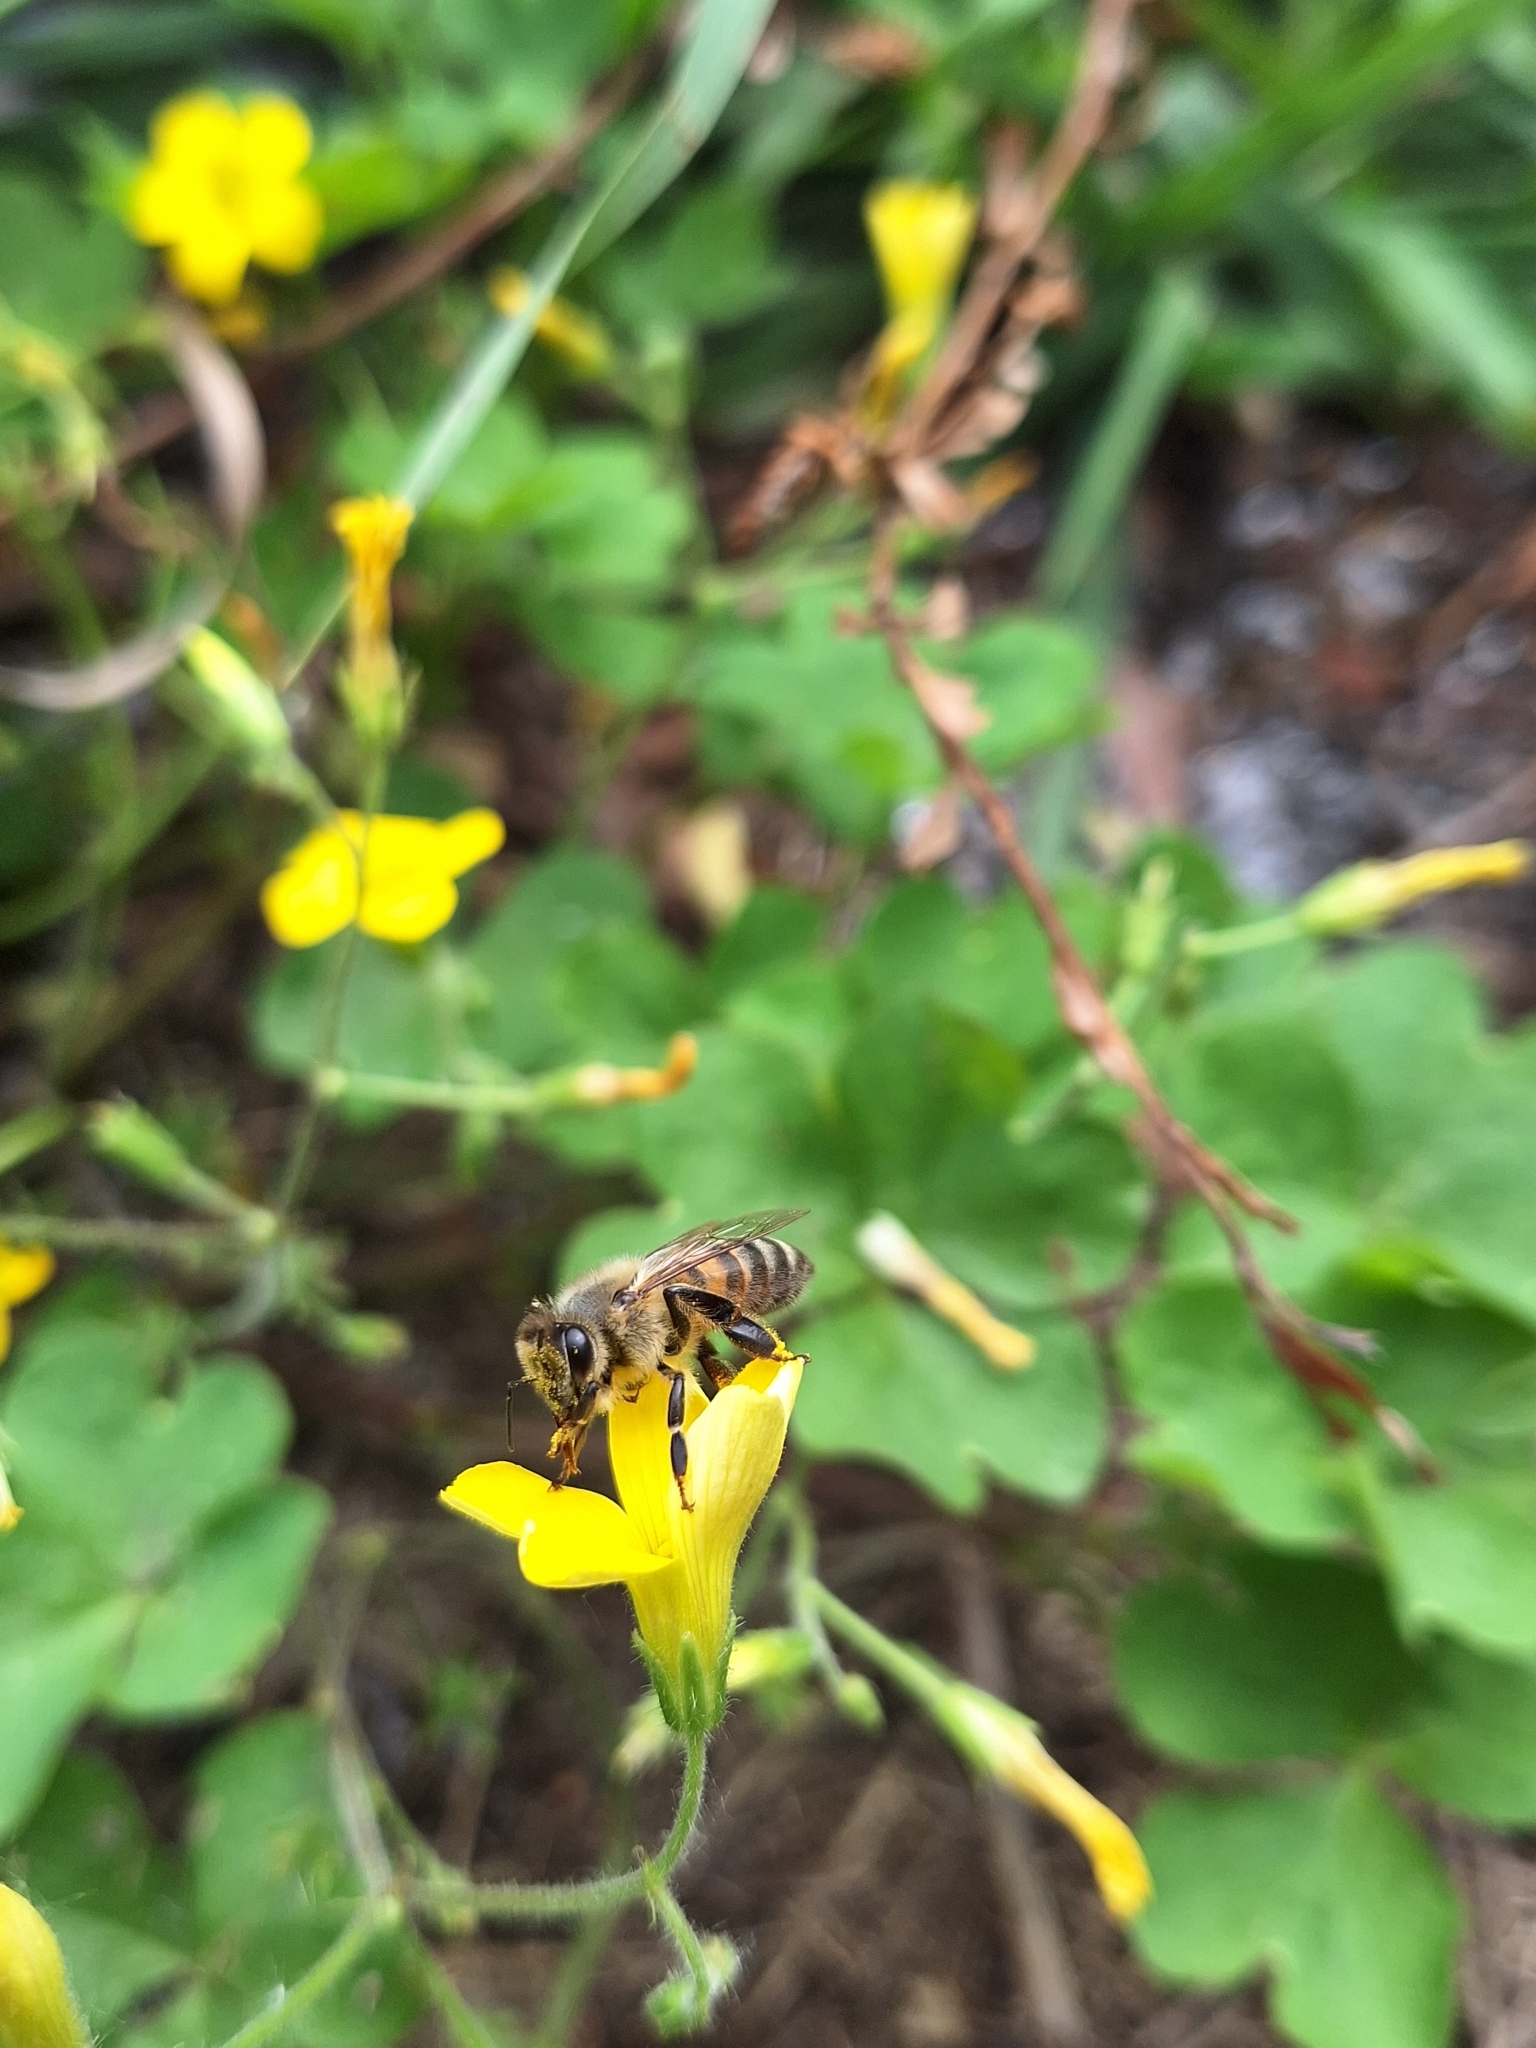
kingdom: Animalia
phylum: Arthropoda
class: Insecta
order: Hymenoptera
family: Apidae
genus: Apis
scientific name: Apis mellifera
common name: Honey bee
